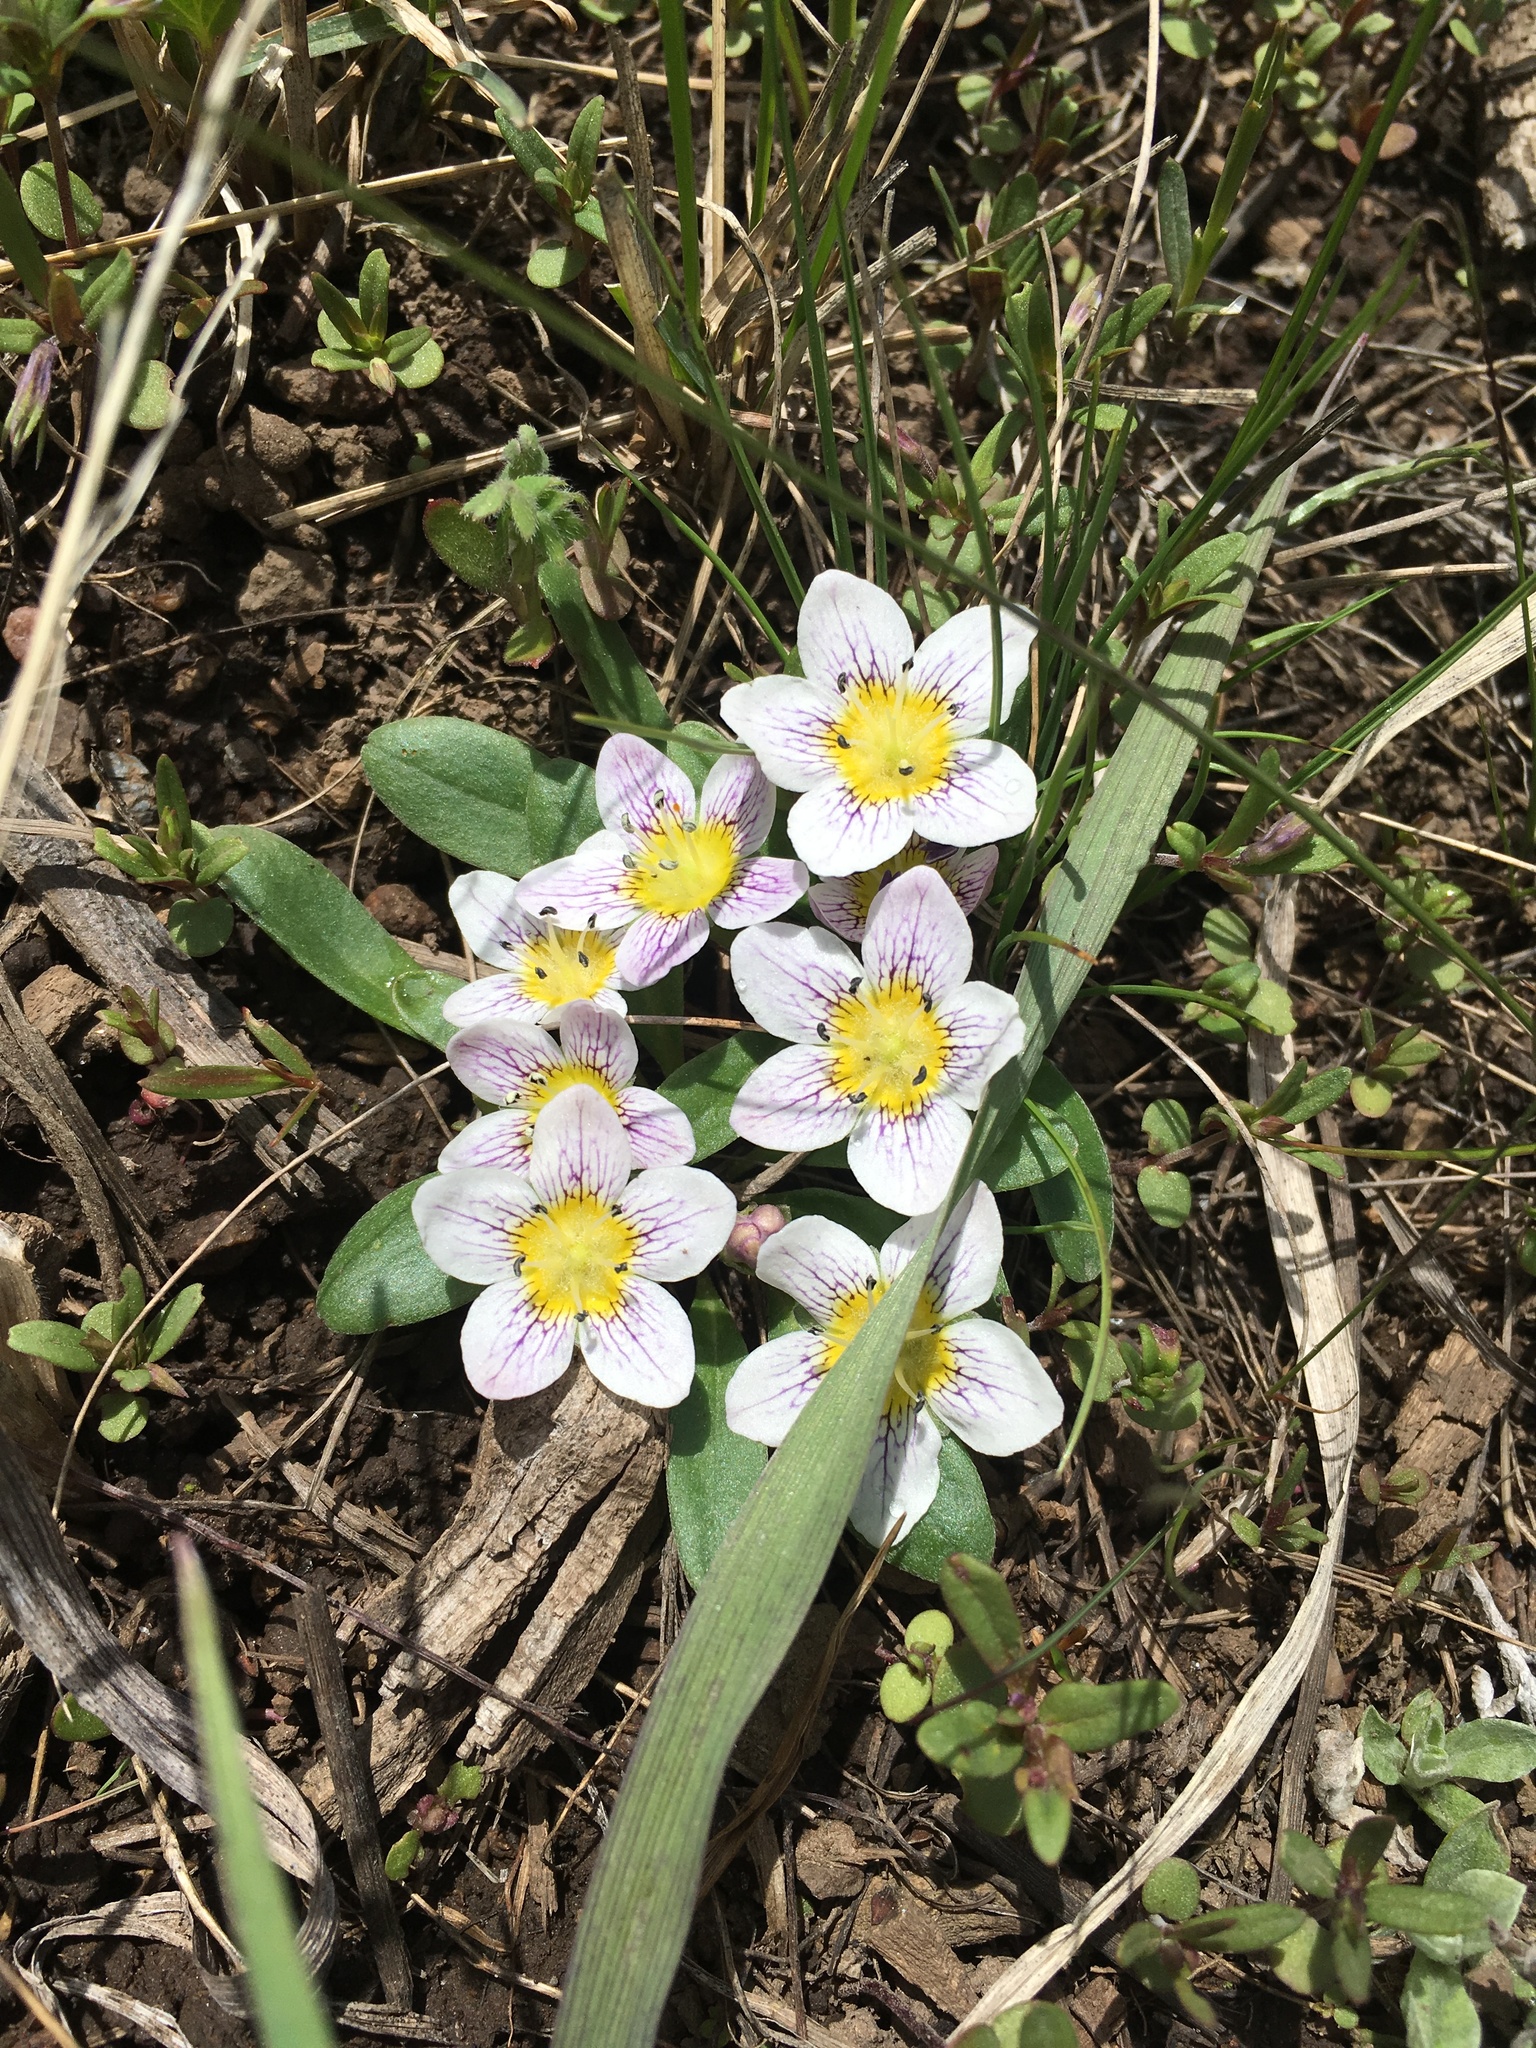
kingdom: Plantae
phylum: Tracheophyta
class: Magnoliopsida
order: Boraginales
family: Hydrophyllaceae
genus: Hesperochiron
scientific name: Hesperochiron pumilus
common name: Dwarf hesperochiron
